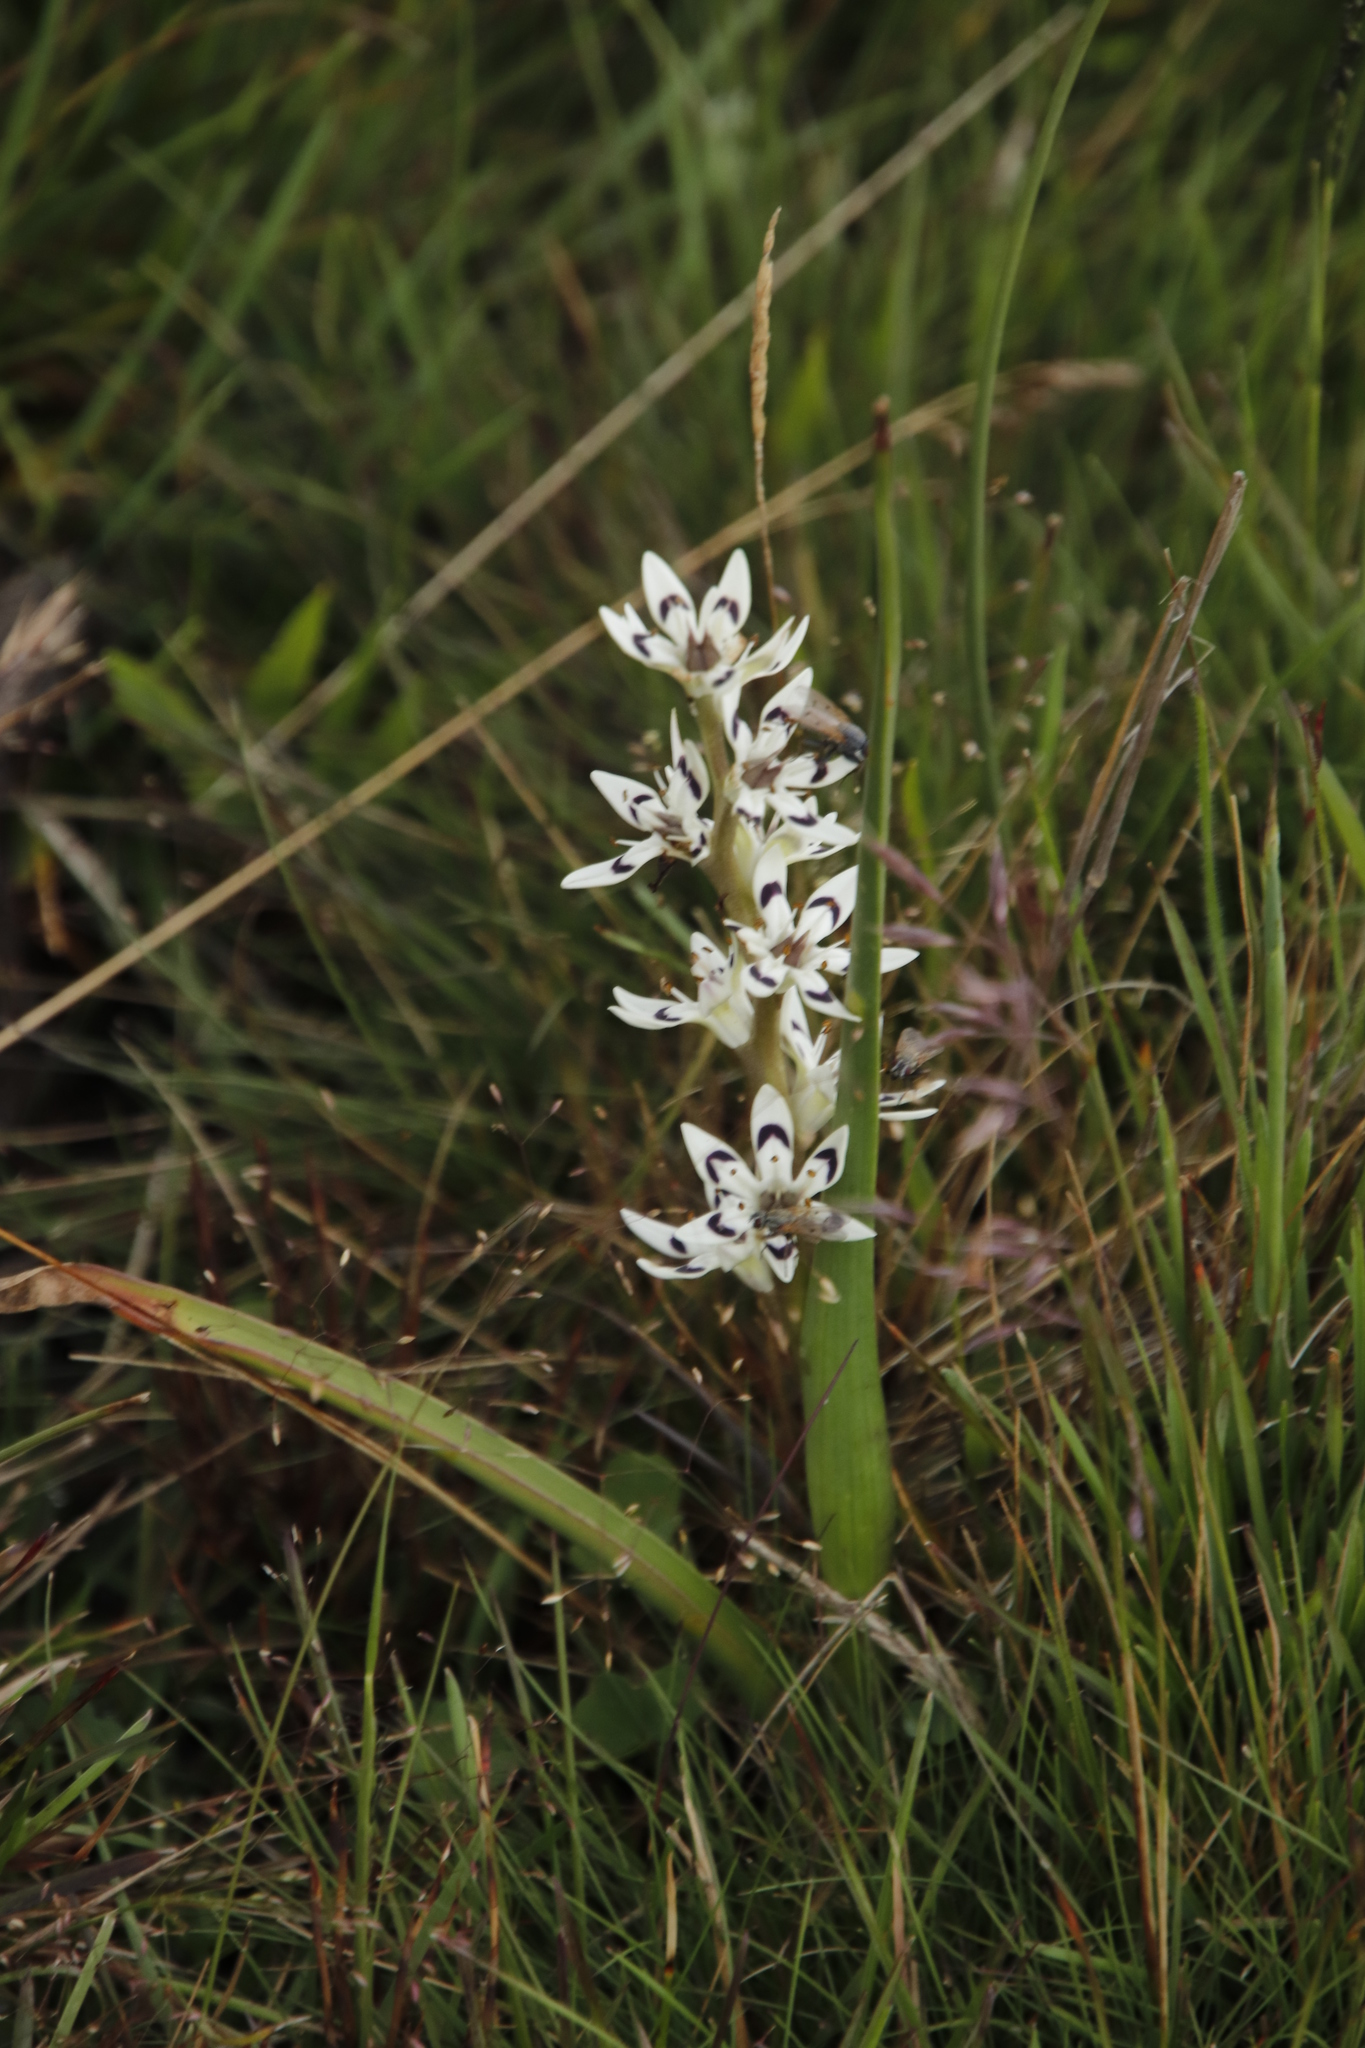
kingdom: Plantae
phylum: Tracheophyta
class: Liliopsida
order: Liliales
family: Colchicaceae
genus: Wurmbea
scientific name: Wurmbea elatior
